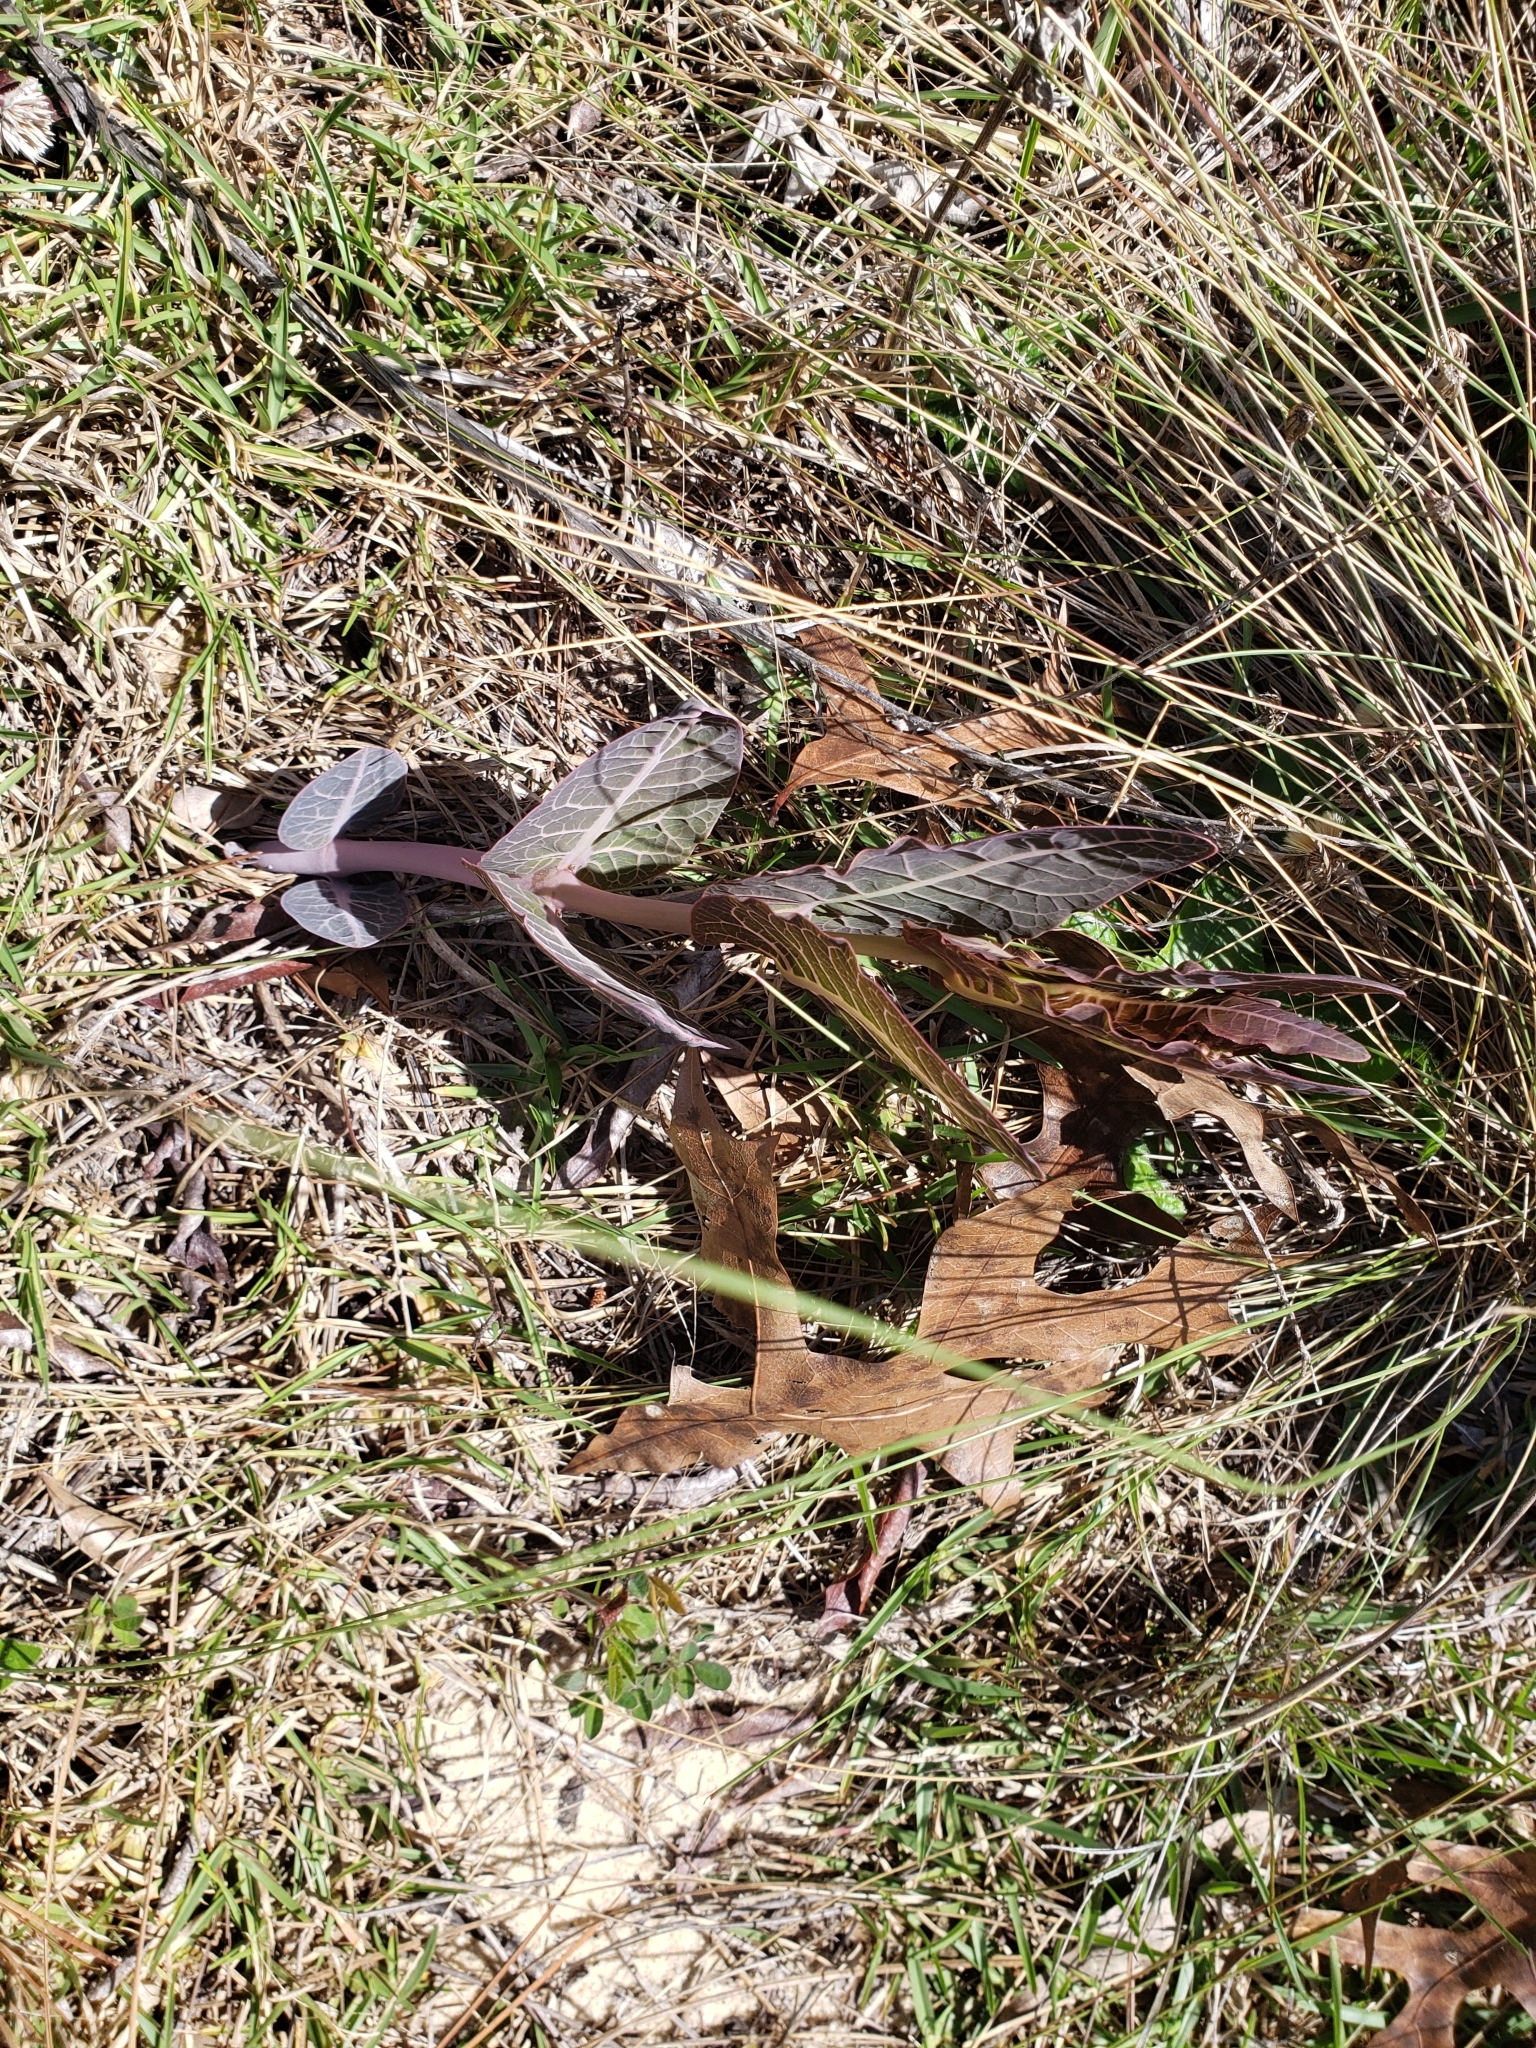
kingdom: Plantae
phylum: Tracheophyta
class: Magnoliopsida
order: Gentianales
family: Apocynaceae
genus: Asclepias
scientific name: Asclepias humistrata
